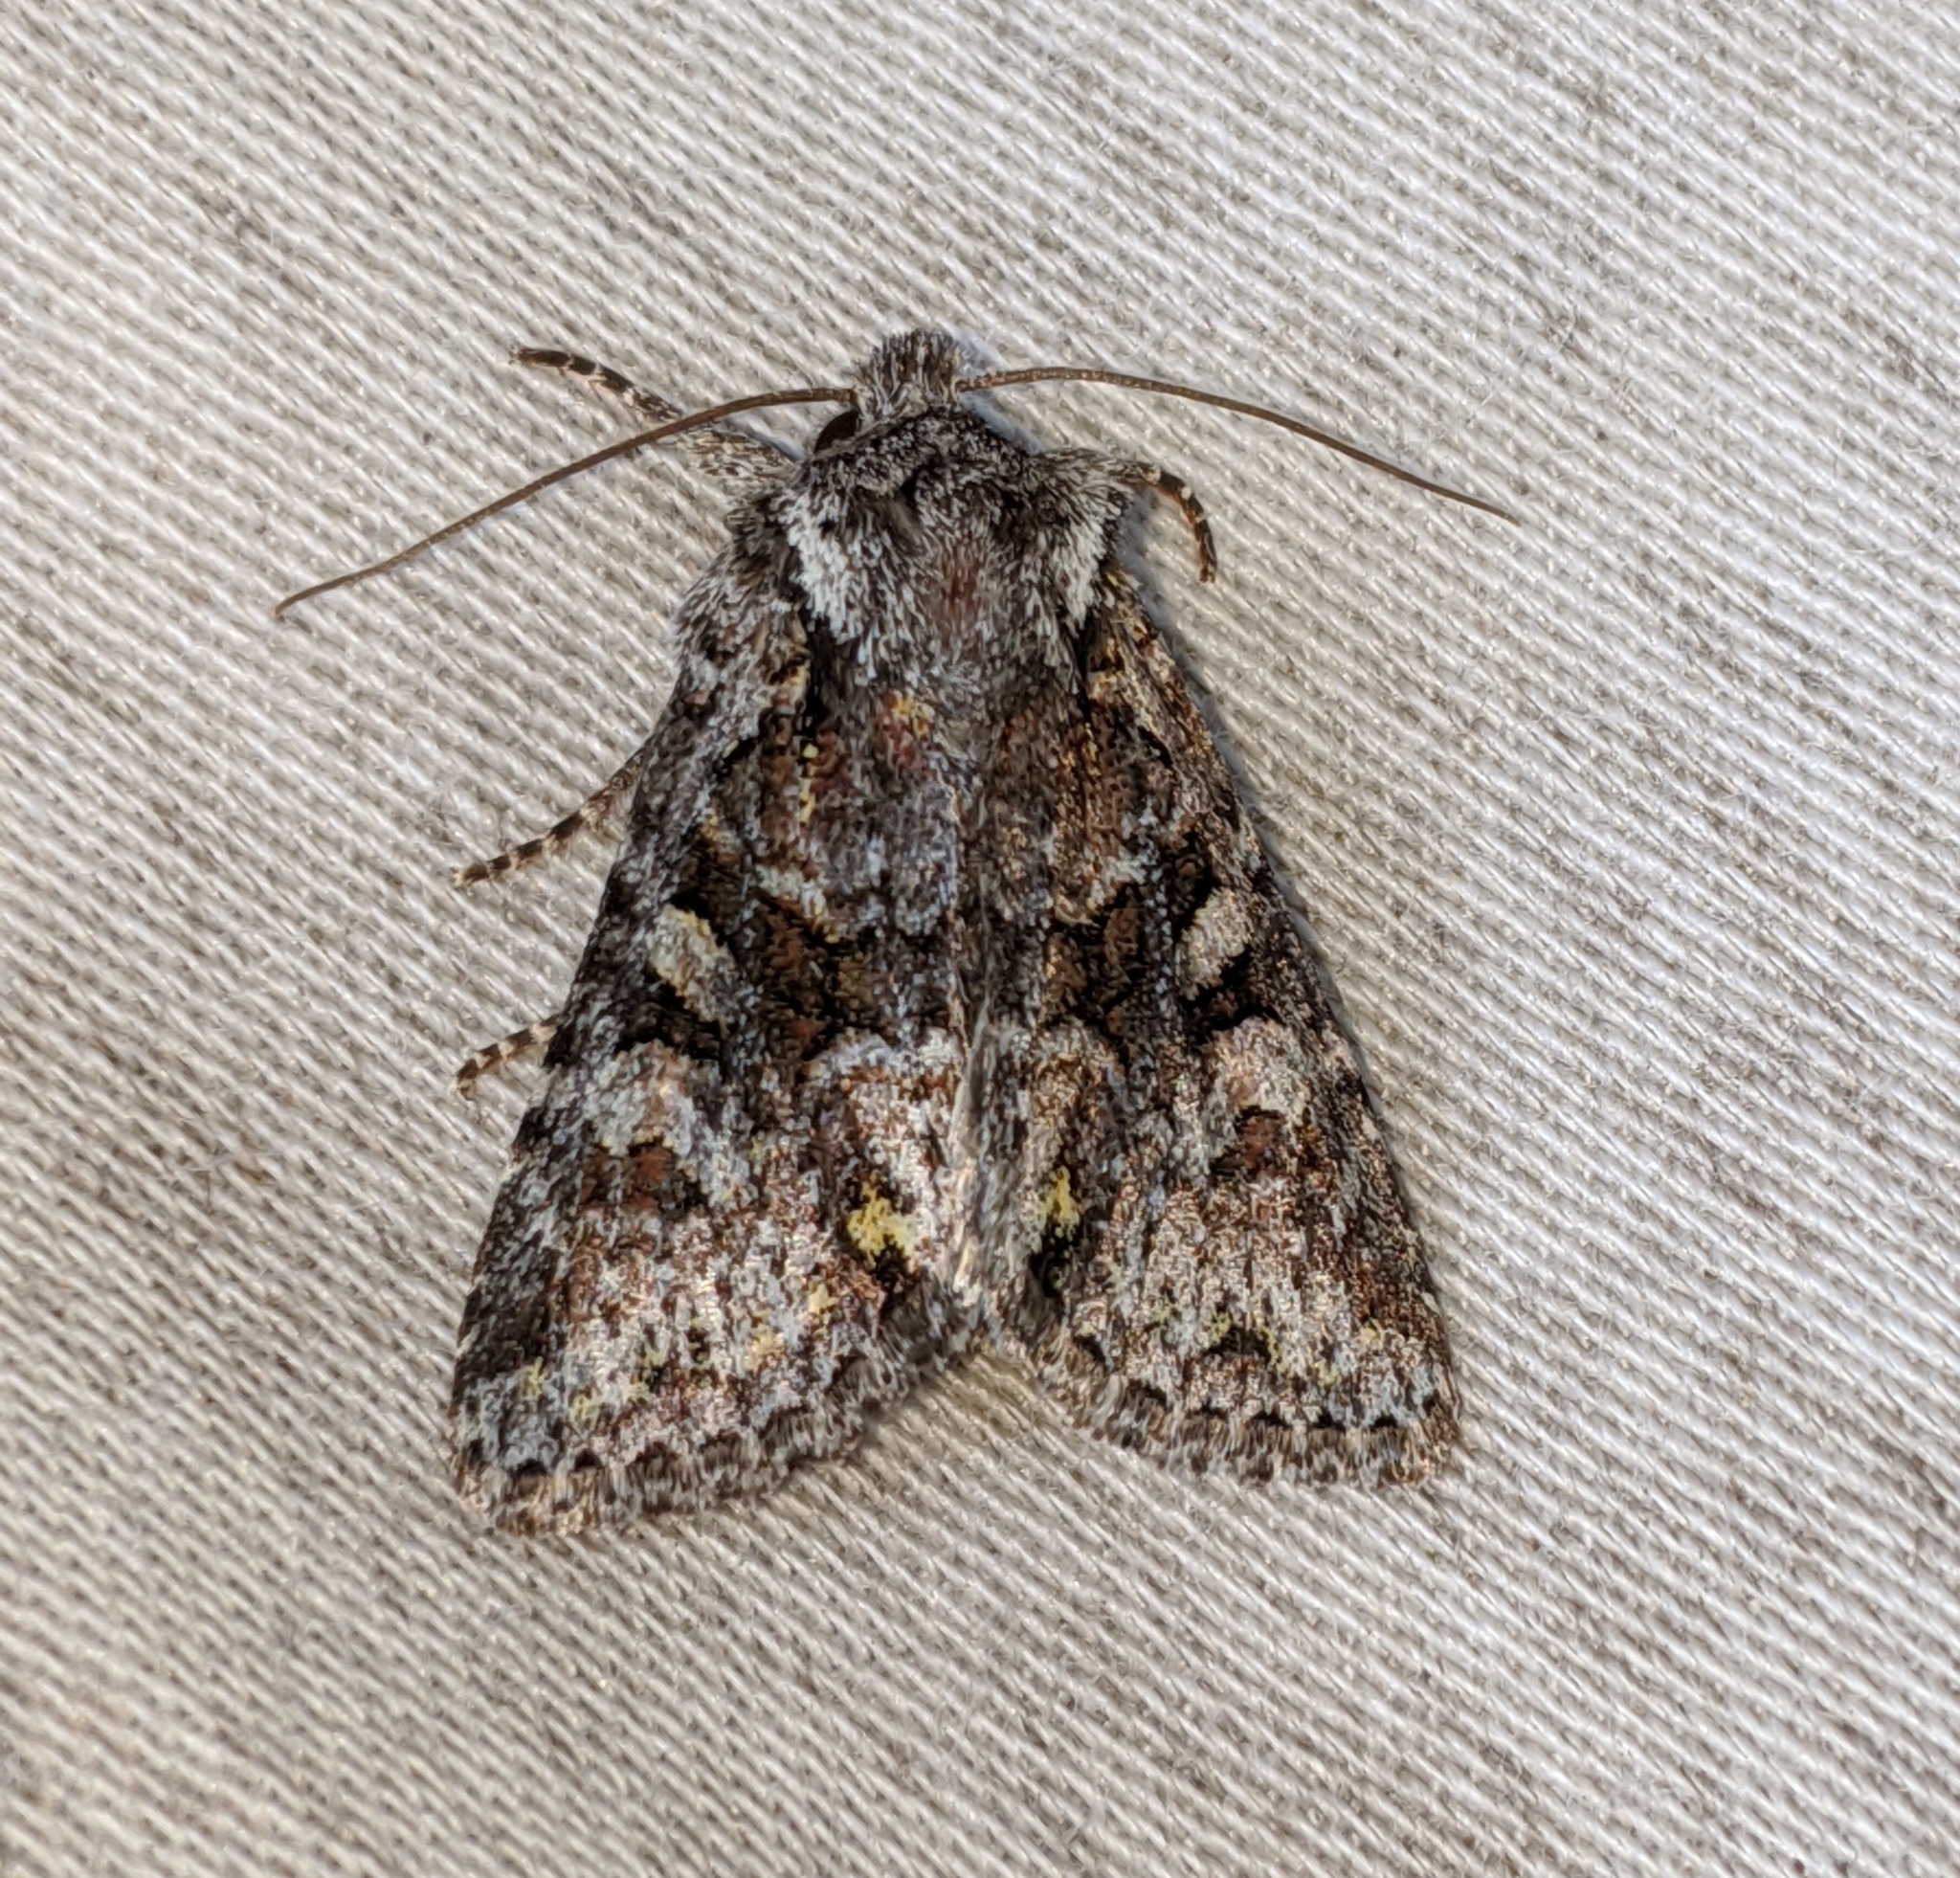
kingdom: Animalia
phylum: Arthropoda
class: Insecta
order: Lepidoptera
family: Noctuidae
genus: Lacinipolia
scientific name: Lacinipolia cuneata
